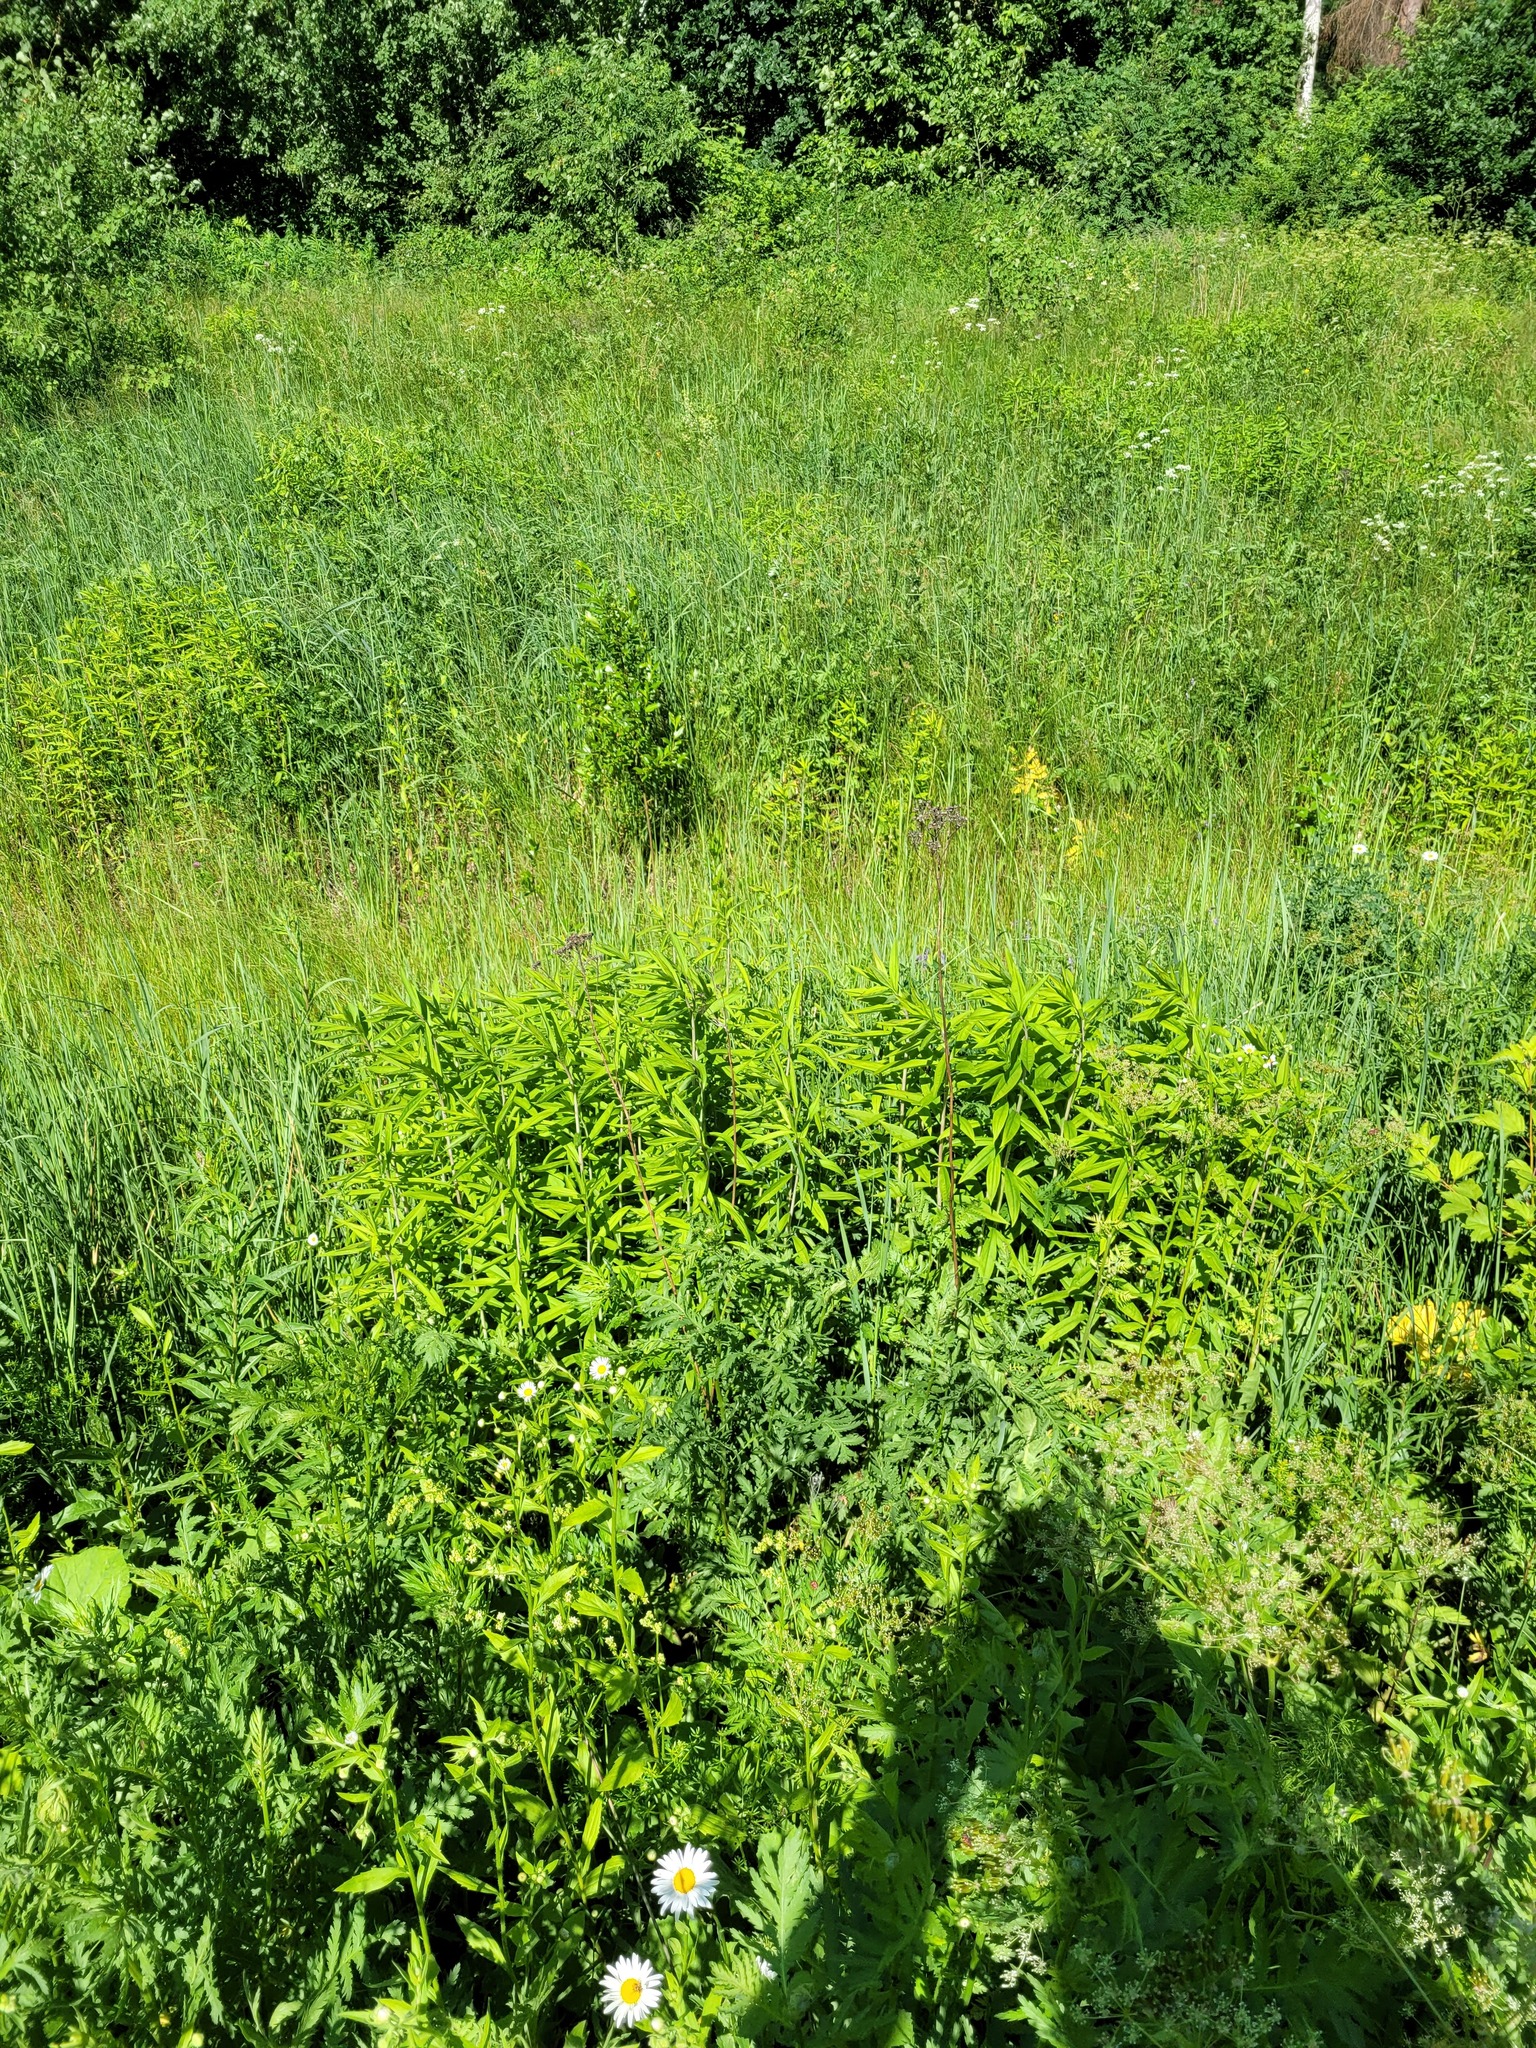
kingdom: Plantae
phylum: Tracheophyta
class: Magnoliopsida
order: Asterales
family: Asteraceae
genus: Solidago
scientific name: Solidago gigantea
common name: Giant goldenrod
